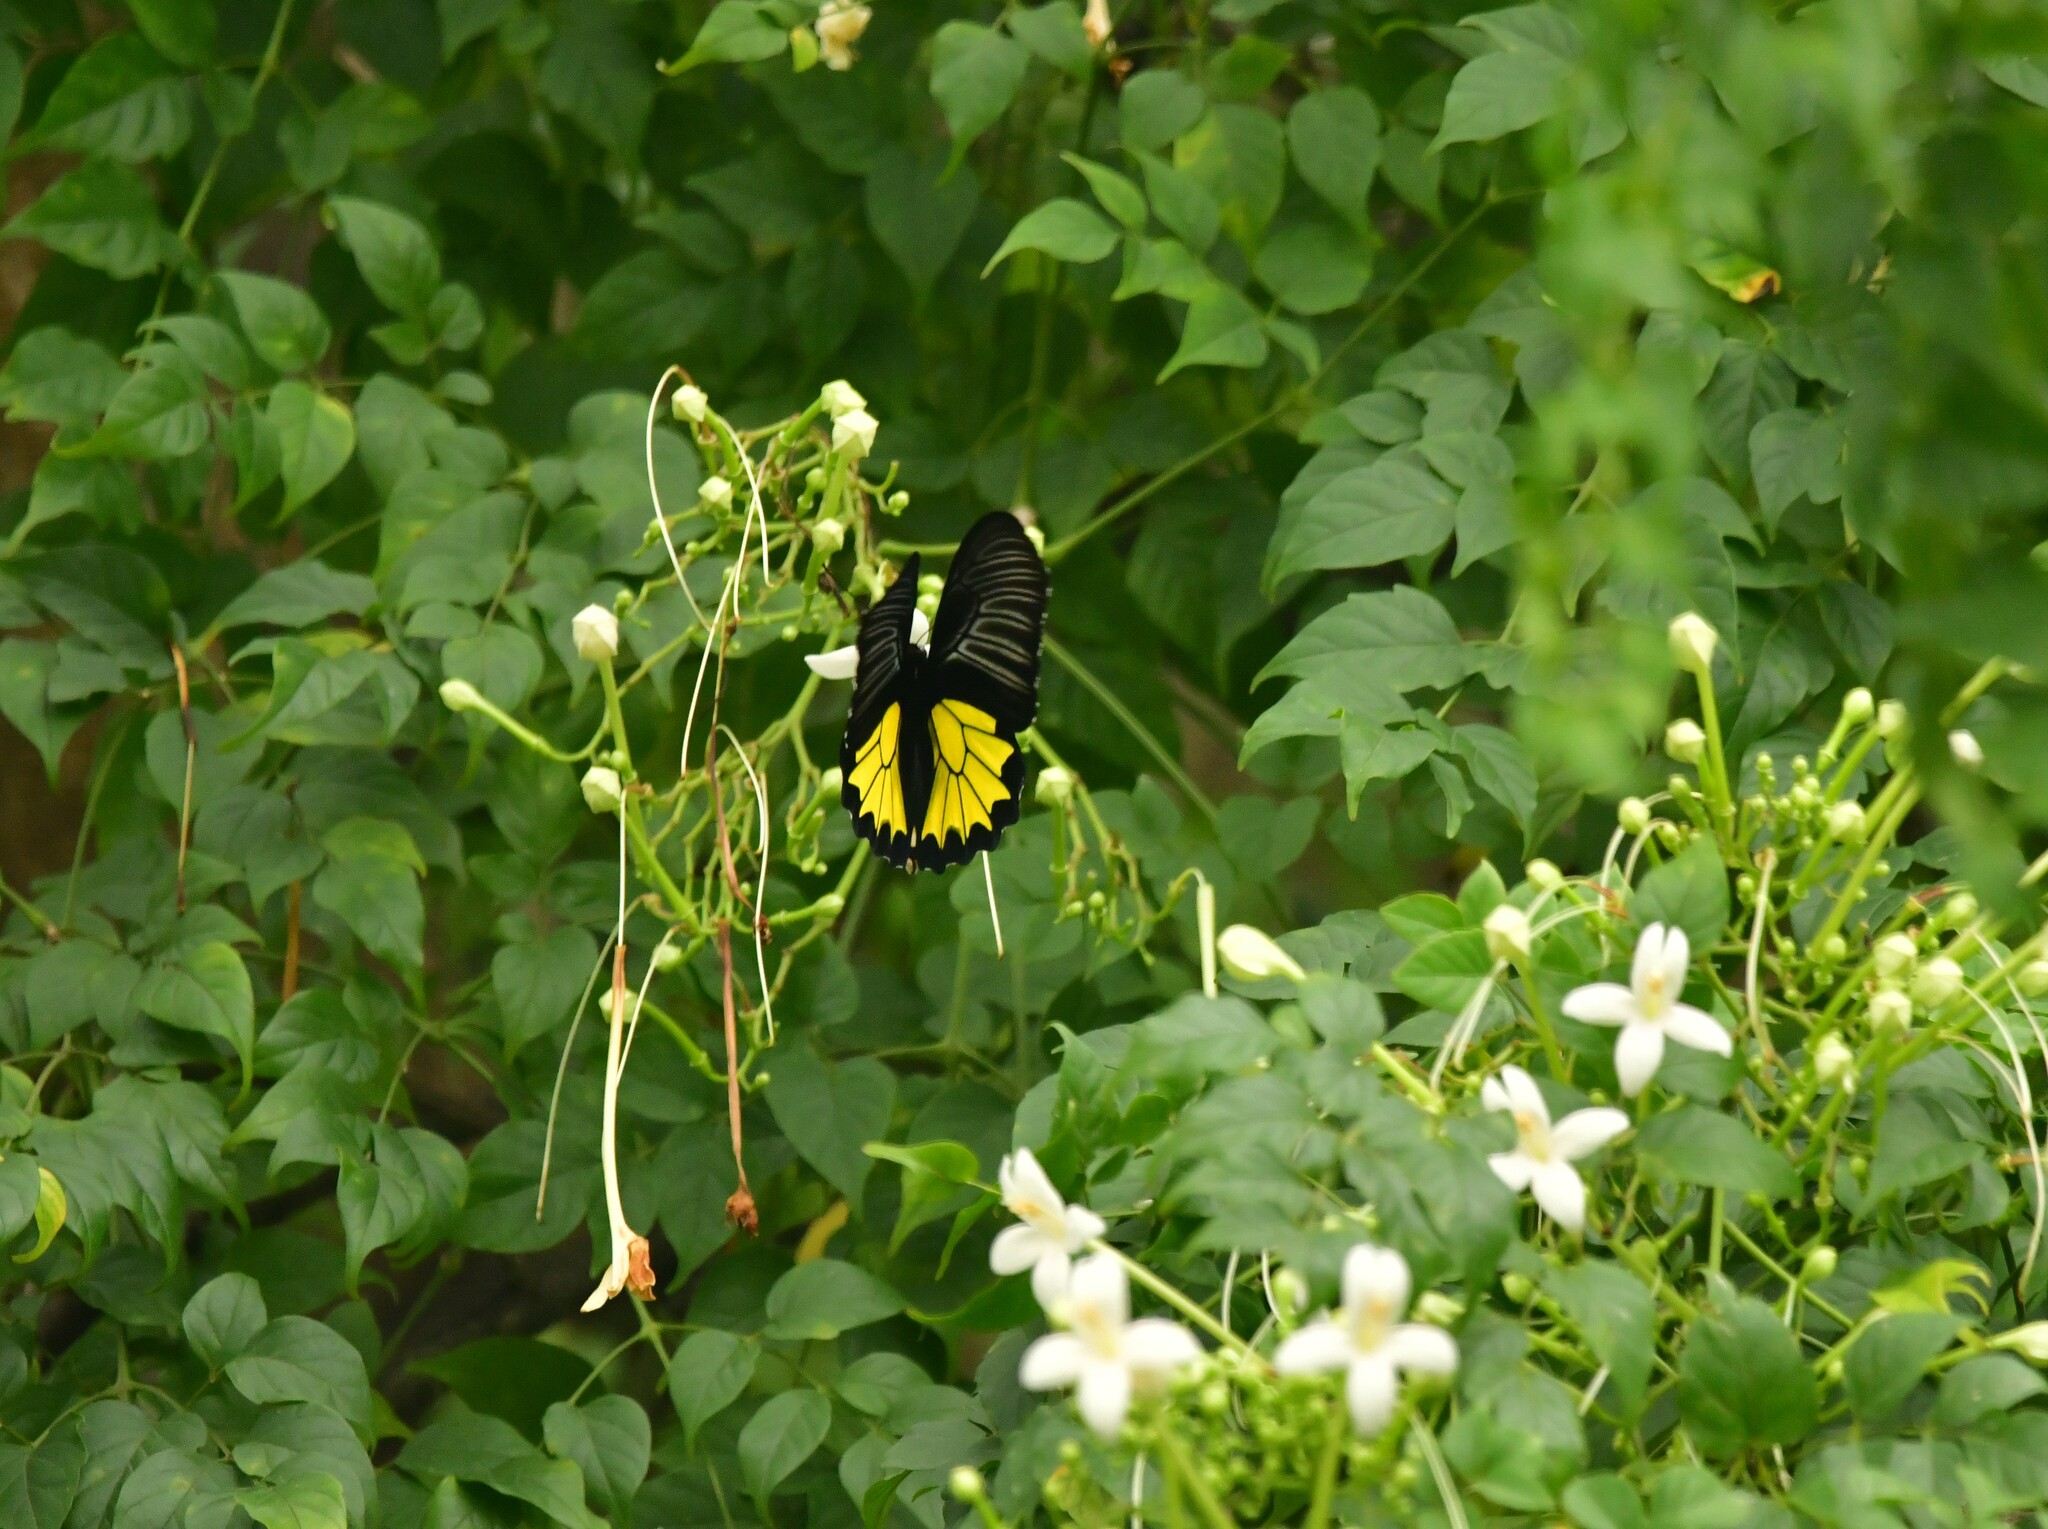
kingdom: Animalia
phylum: Arthropoda
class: Insecta
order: Lepidoptera
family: Papilionidae
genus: Troides
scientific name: Troides minos
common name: Malabar birdwing
